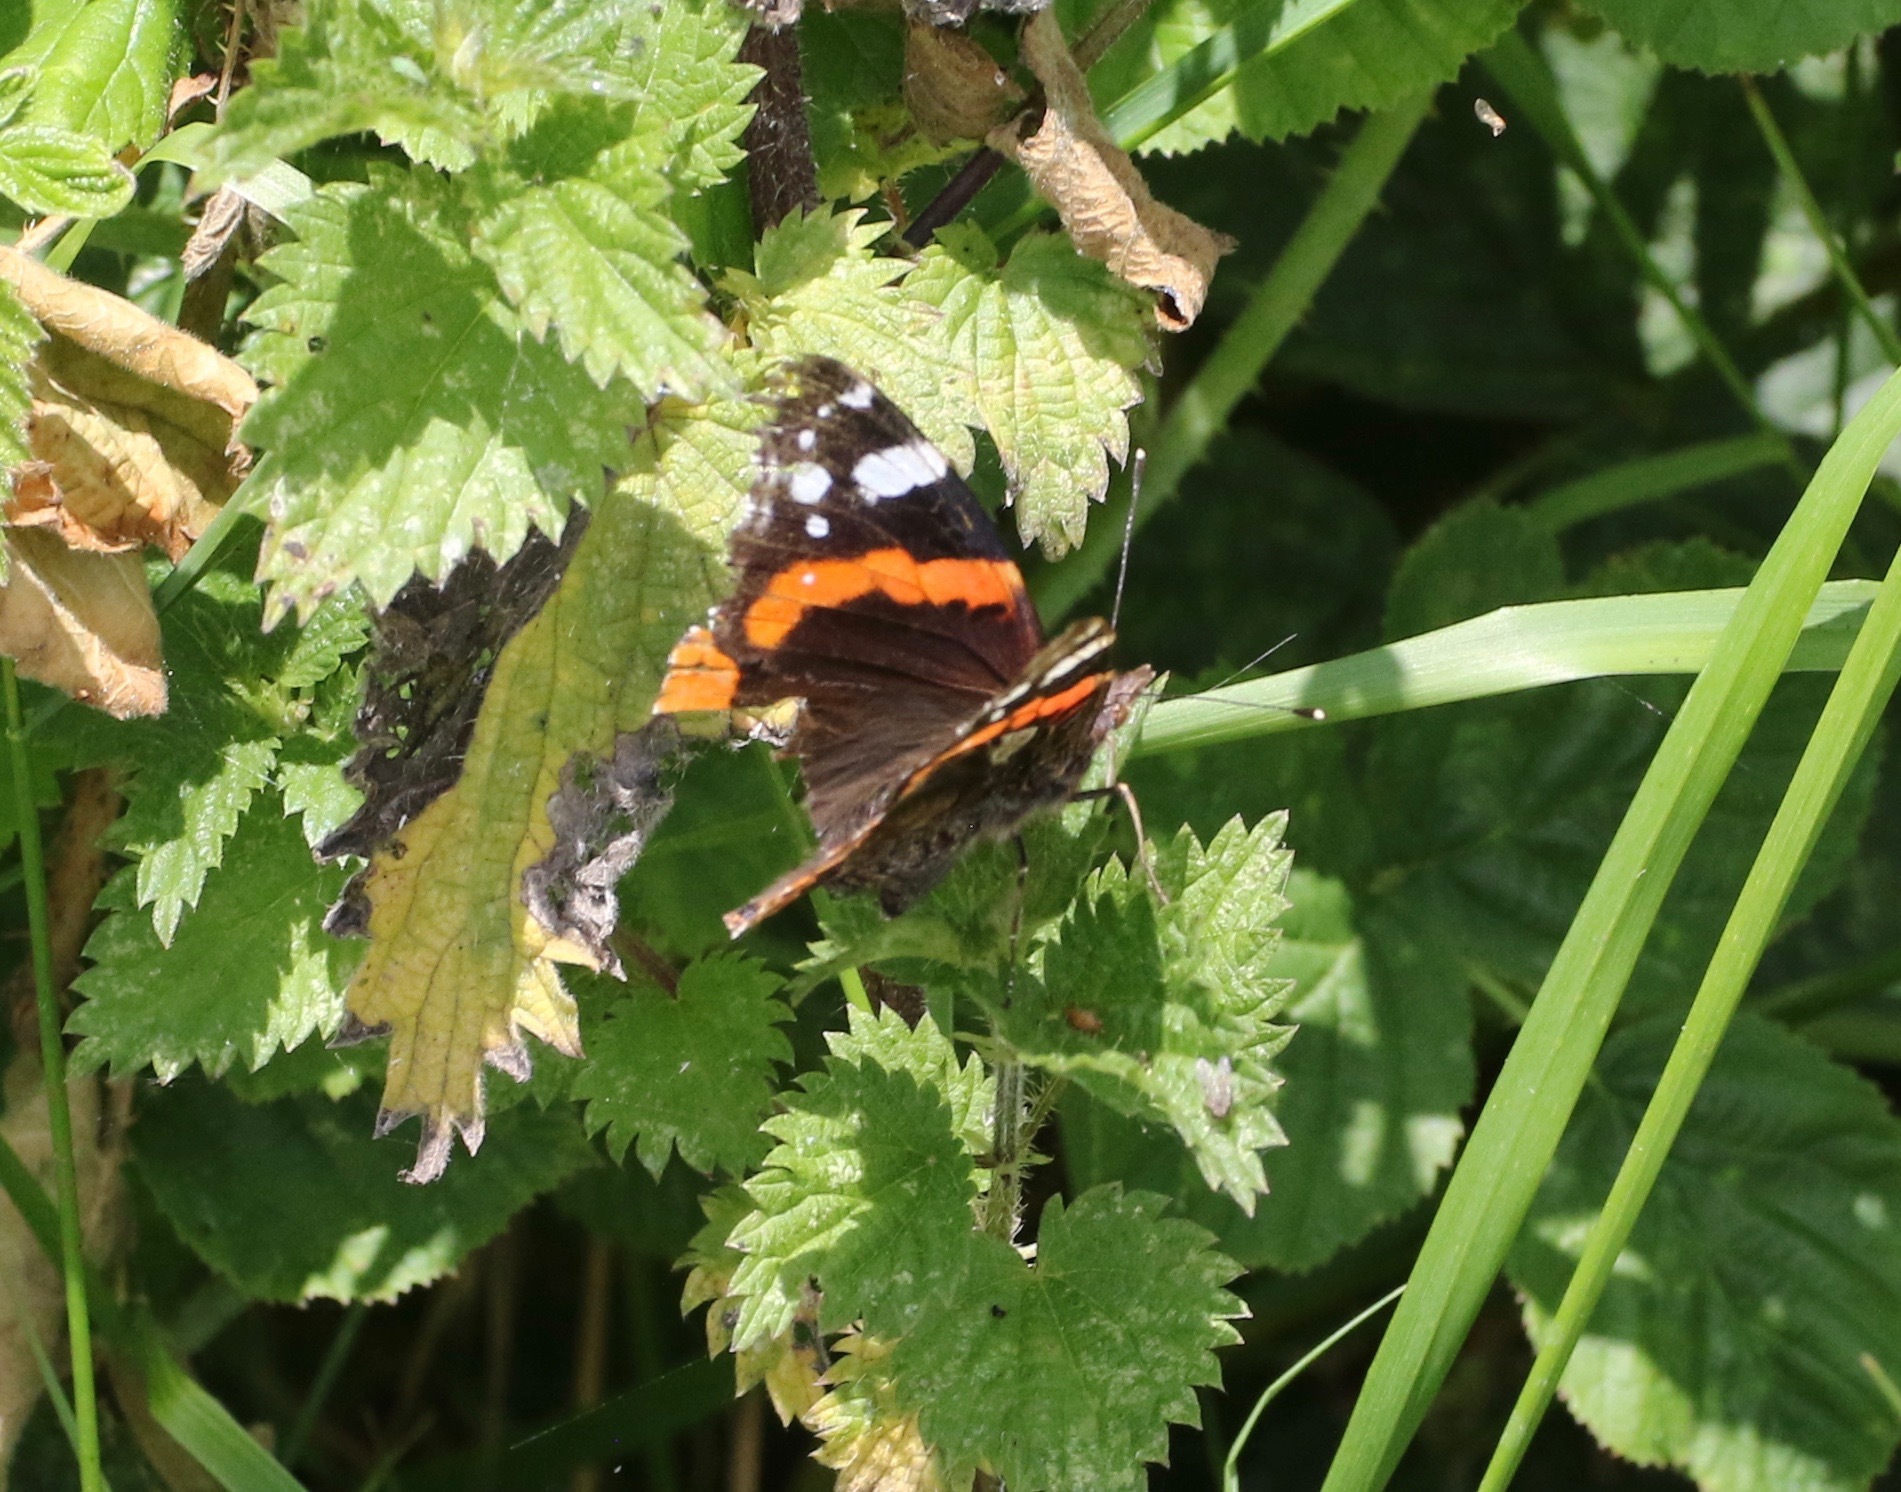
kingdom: Animalia
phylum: Arthropoda
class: Insecta
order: Lepidoptera
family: Nymphalidae
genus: Vanessa
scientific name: Vanessa atalanta
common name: Red admiral
